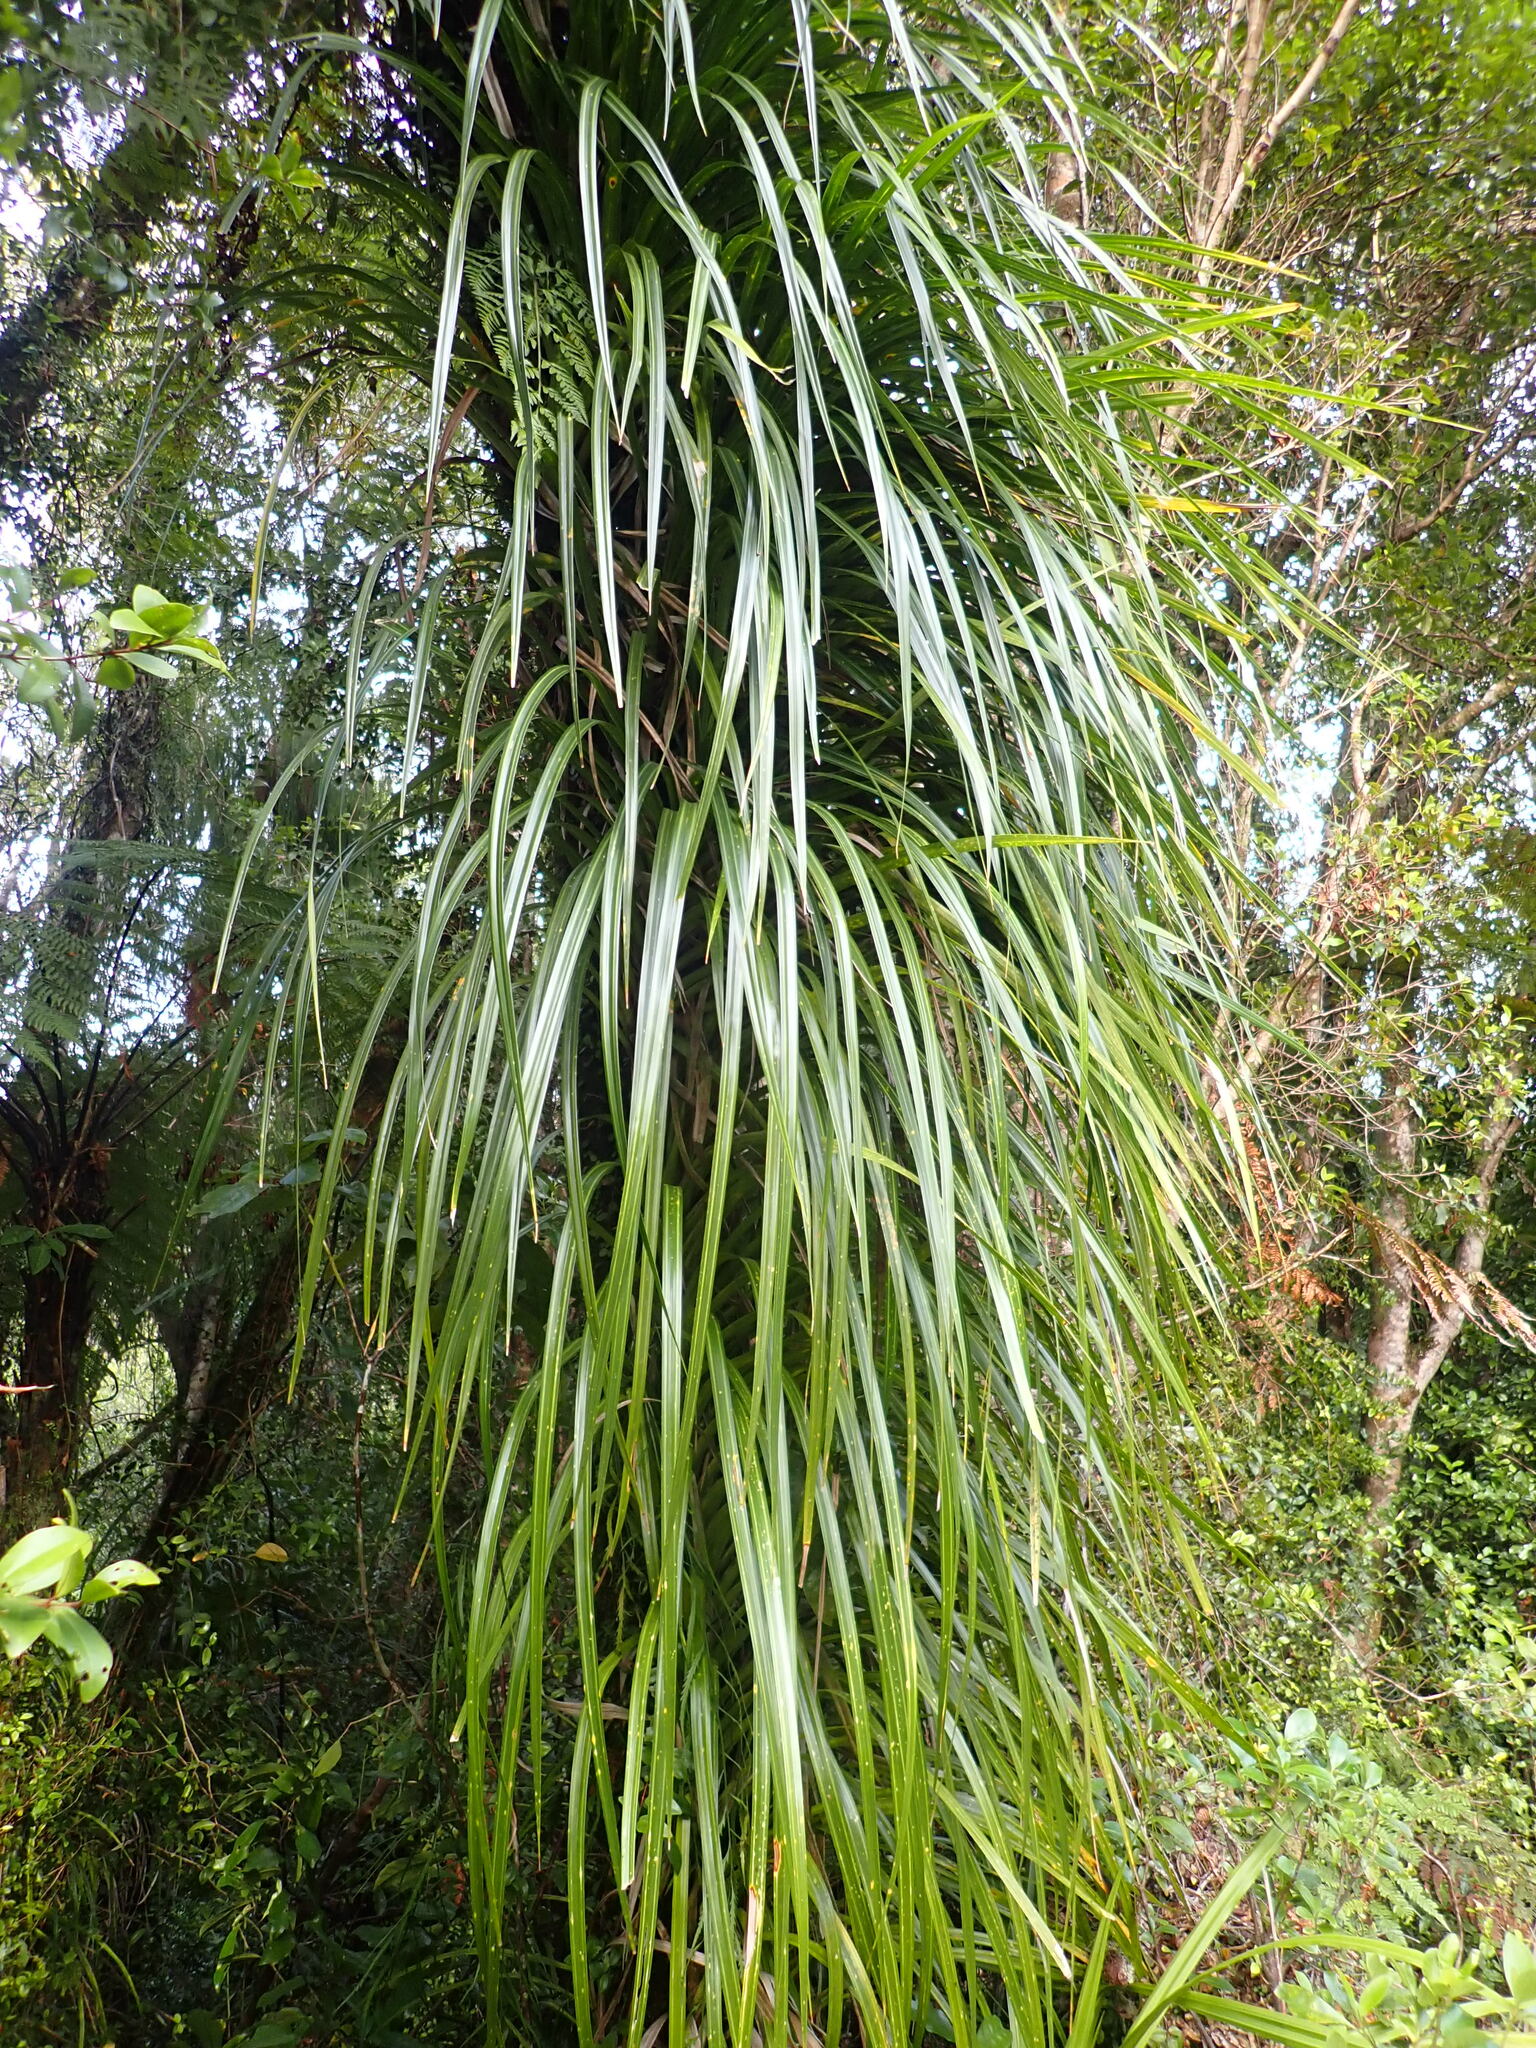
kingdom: Plantae
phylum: Tracheophyta
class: Liliopsida
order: Pandanales
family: Pandanaceae
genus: Freycinetia
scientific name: Freycinetia banksii
